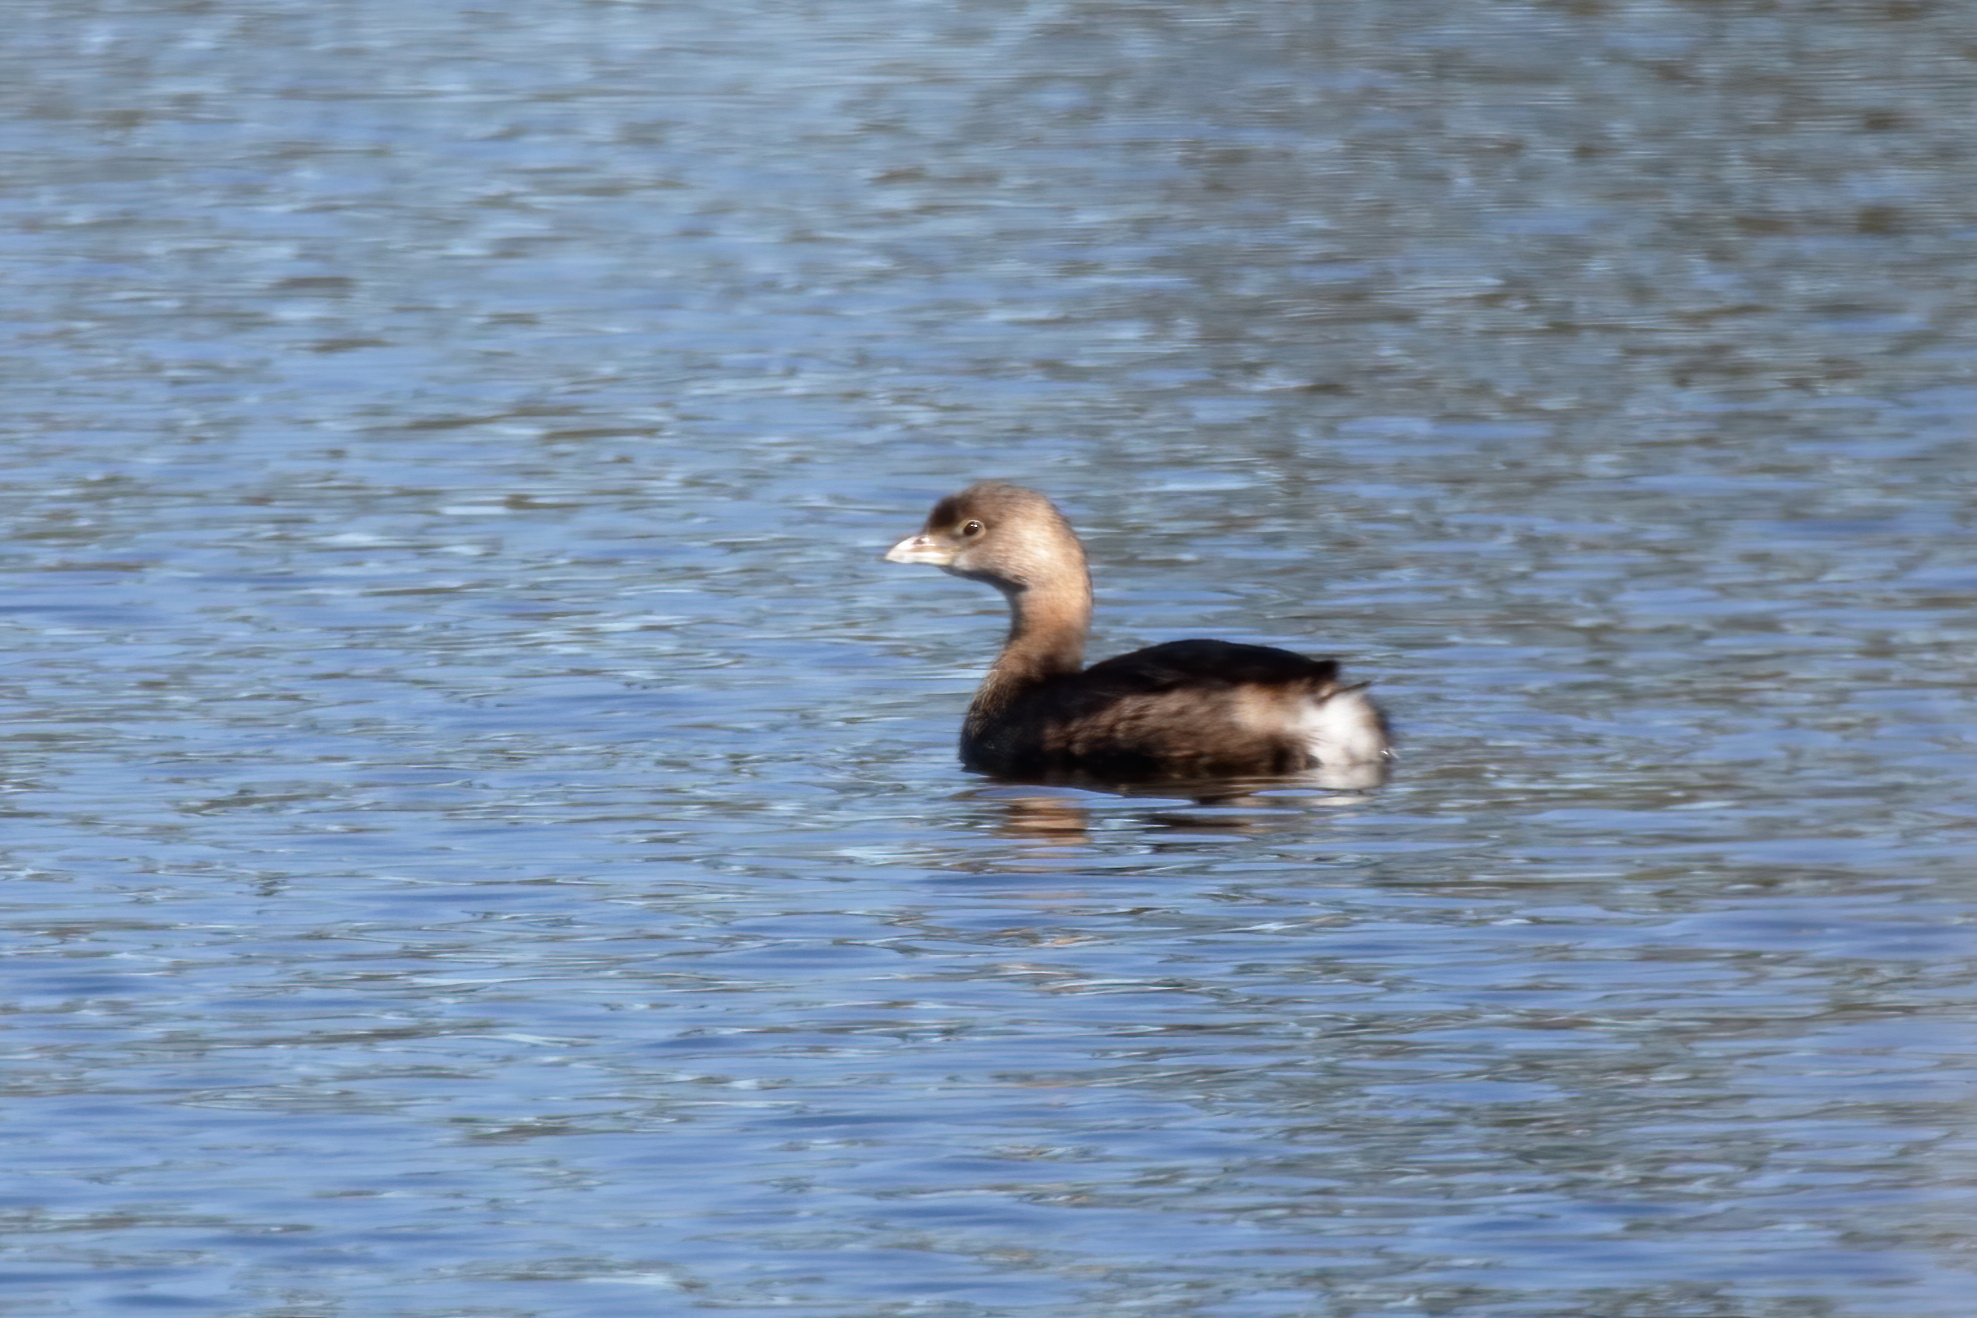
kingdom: Animalia
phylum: Chordata
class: Aves
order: Podicipediformes
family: Podicipedidae
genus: Podilymbus
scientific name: Podilymbus podiceps
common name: Pied-billed grebe
